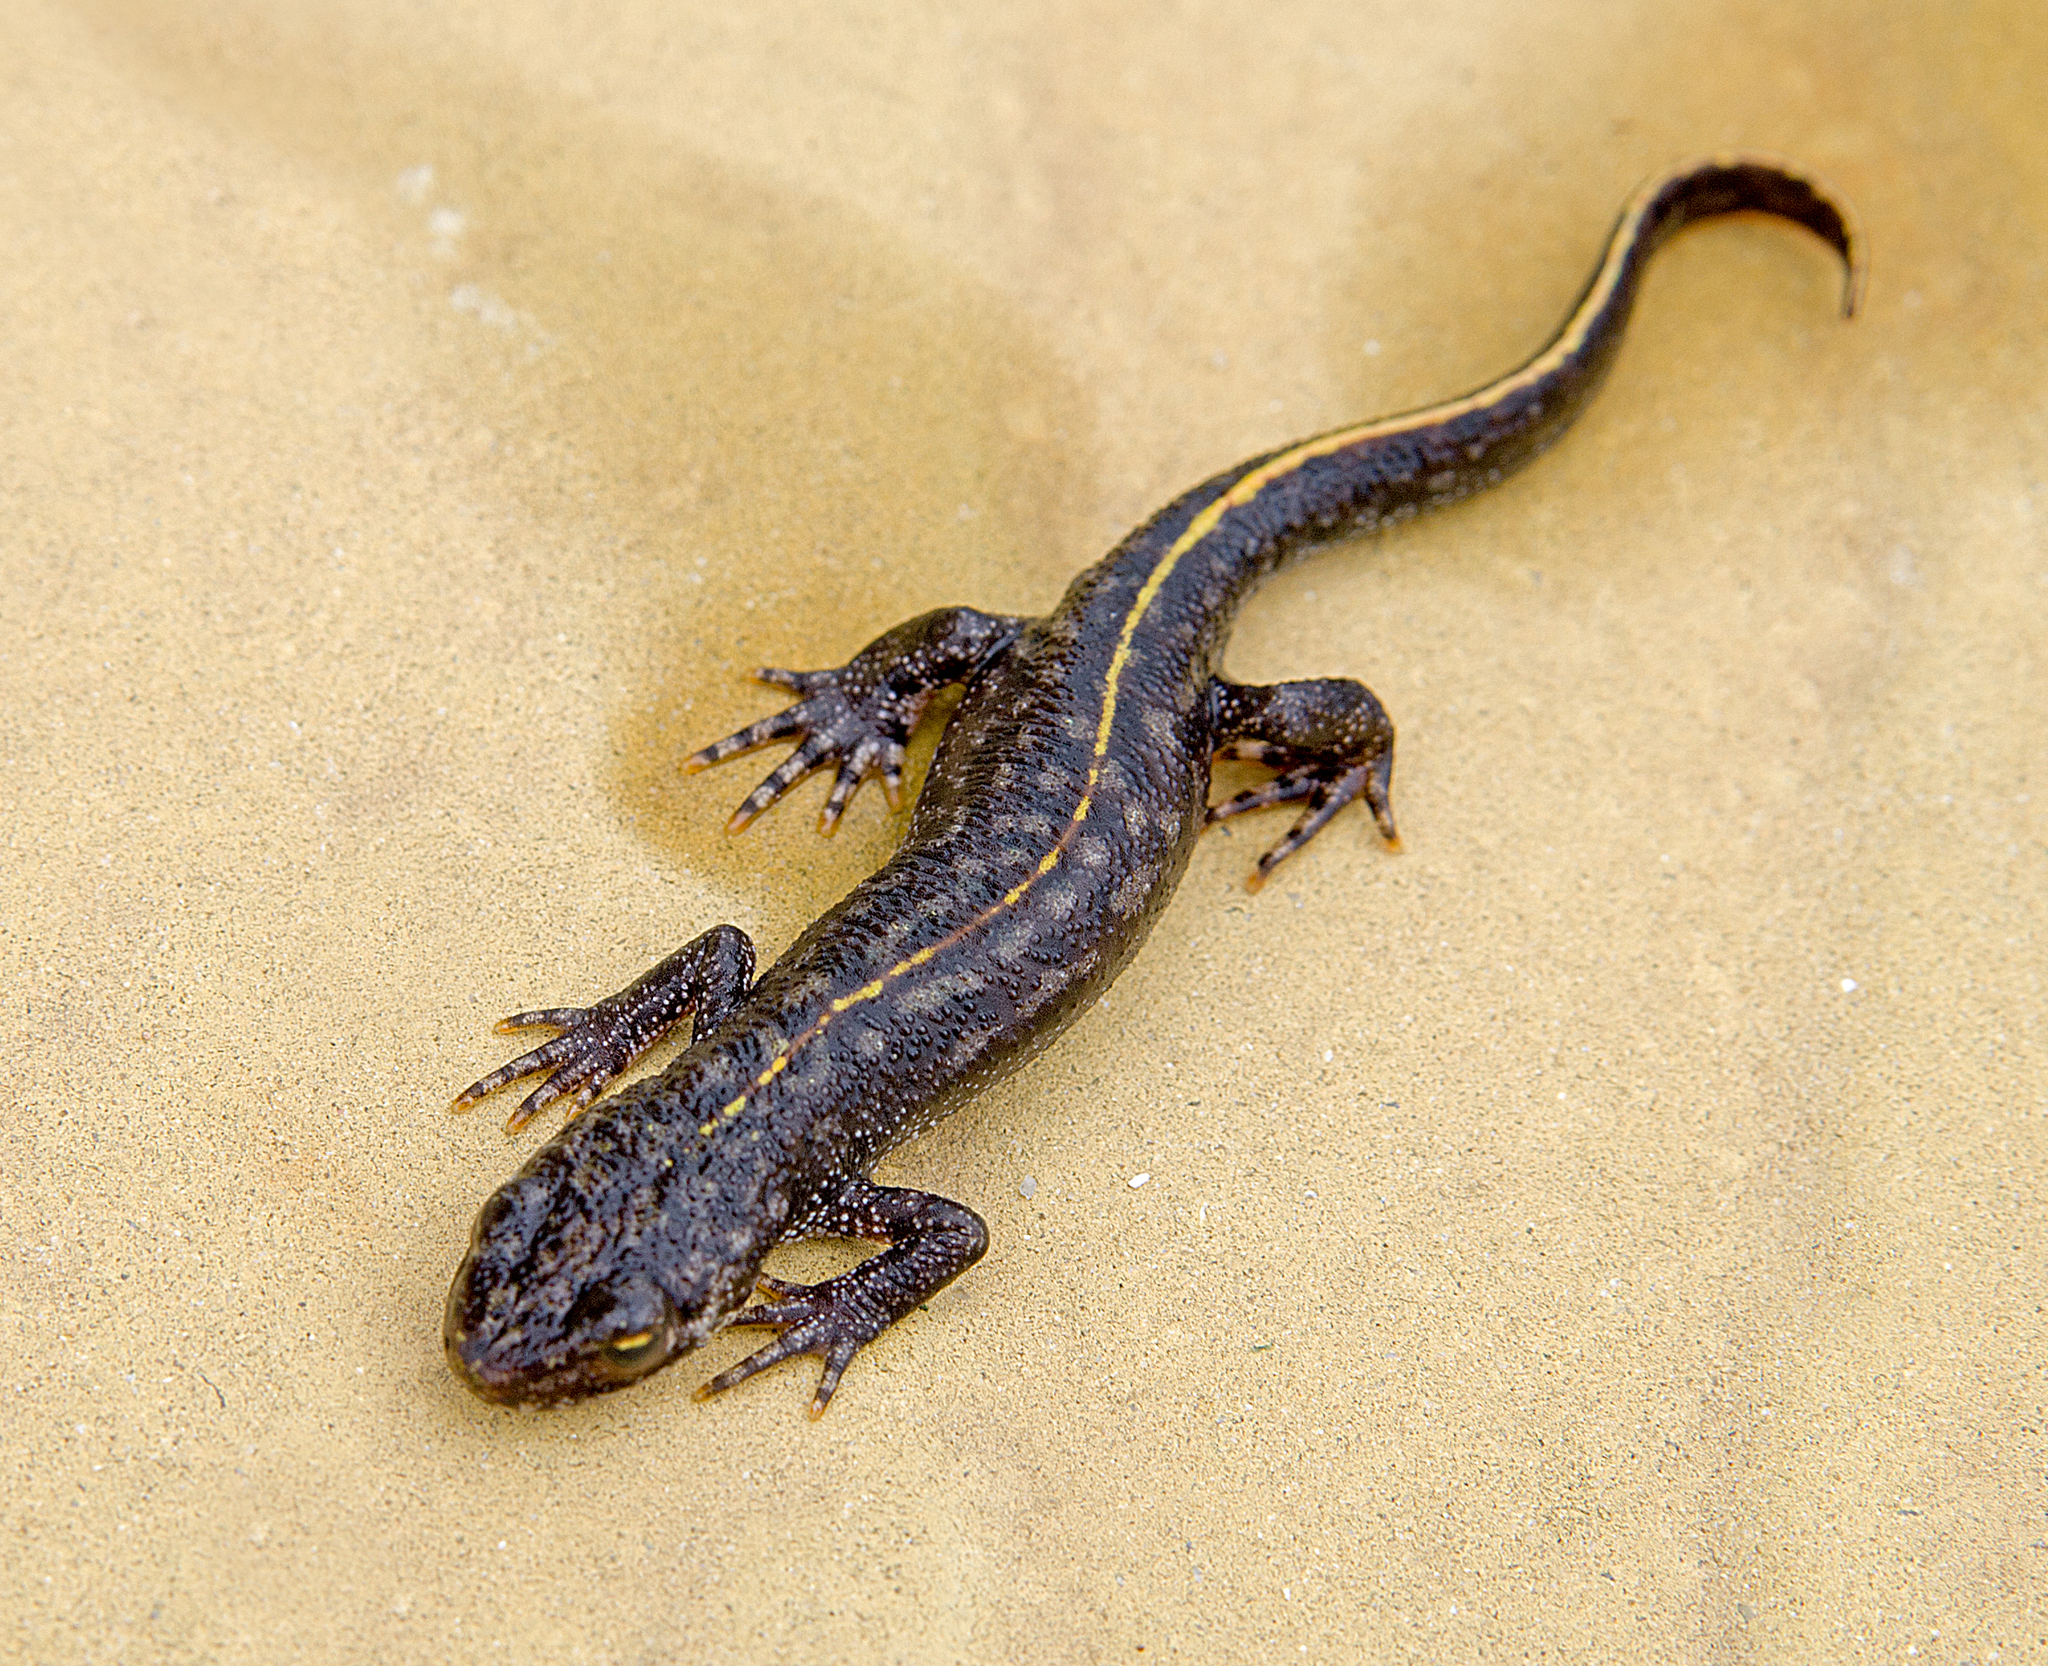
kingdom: Animalia
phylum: Chordata
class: Amphibia
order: Caudata
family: Salamandridae
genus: Triturus
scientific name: Triturus ivanbureschi
